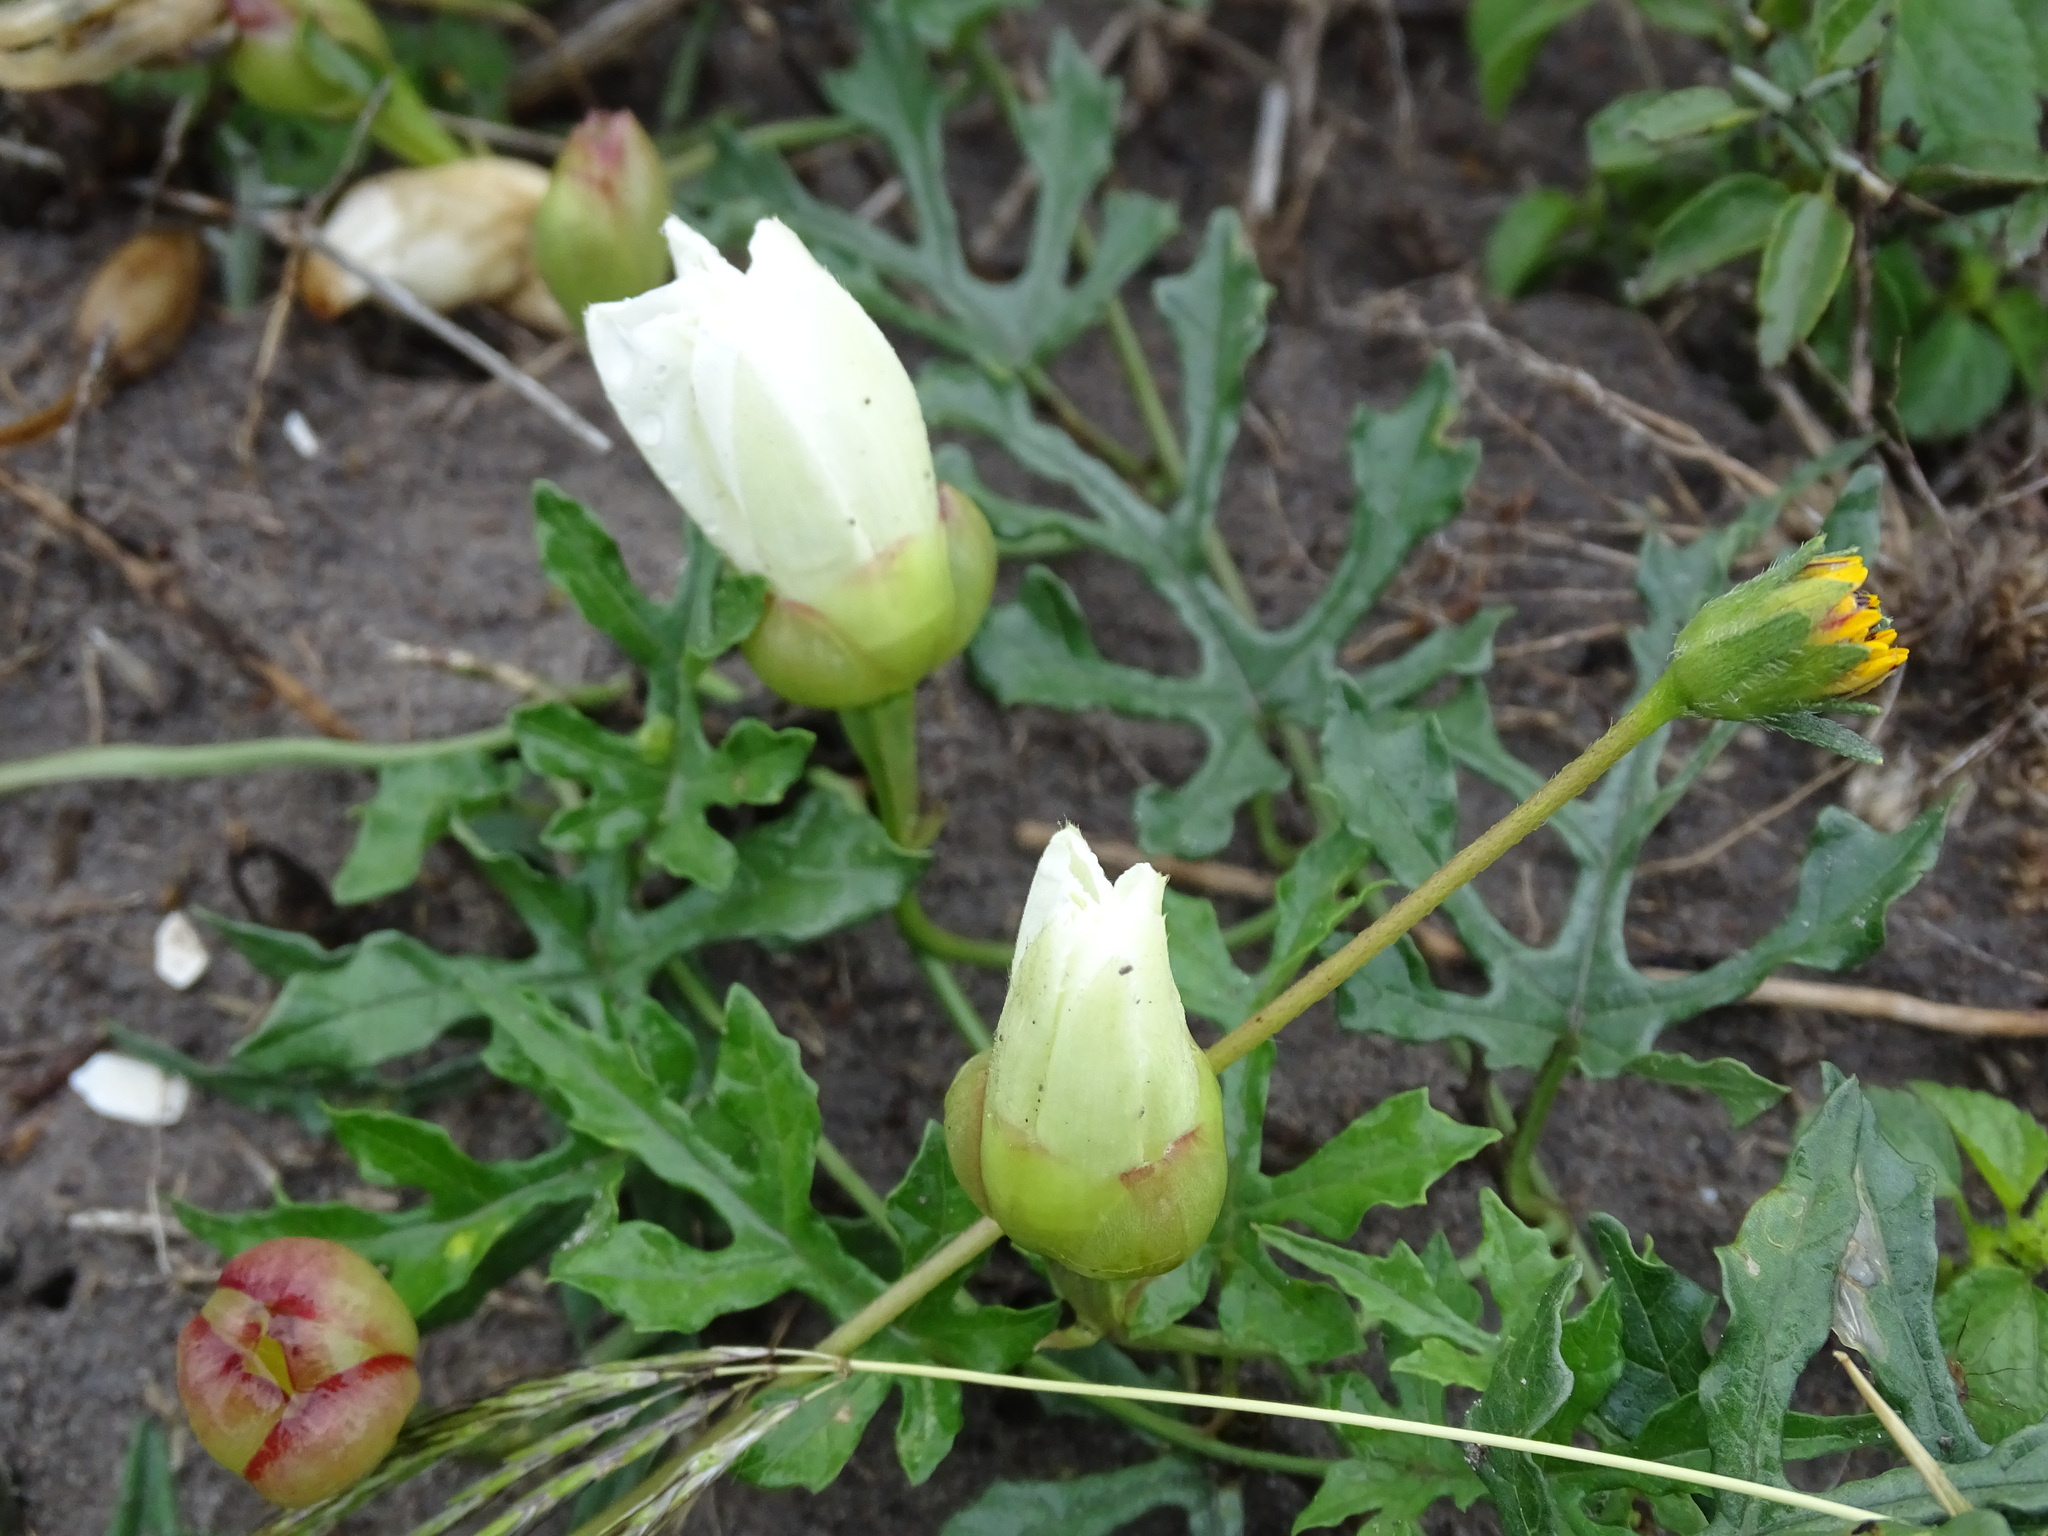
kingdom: Plantae
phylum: Tracheophyta
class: Magnoliopsida
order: Solanales
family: Convolvulaceae
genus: Operculina
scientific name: Operculina pinnatifida
